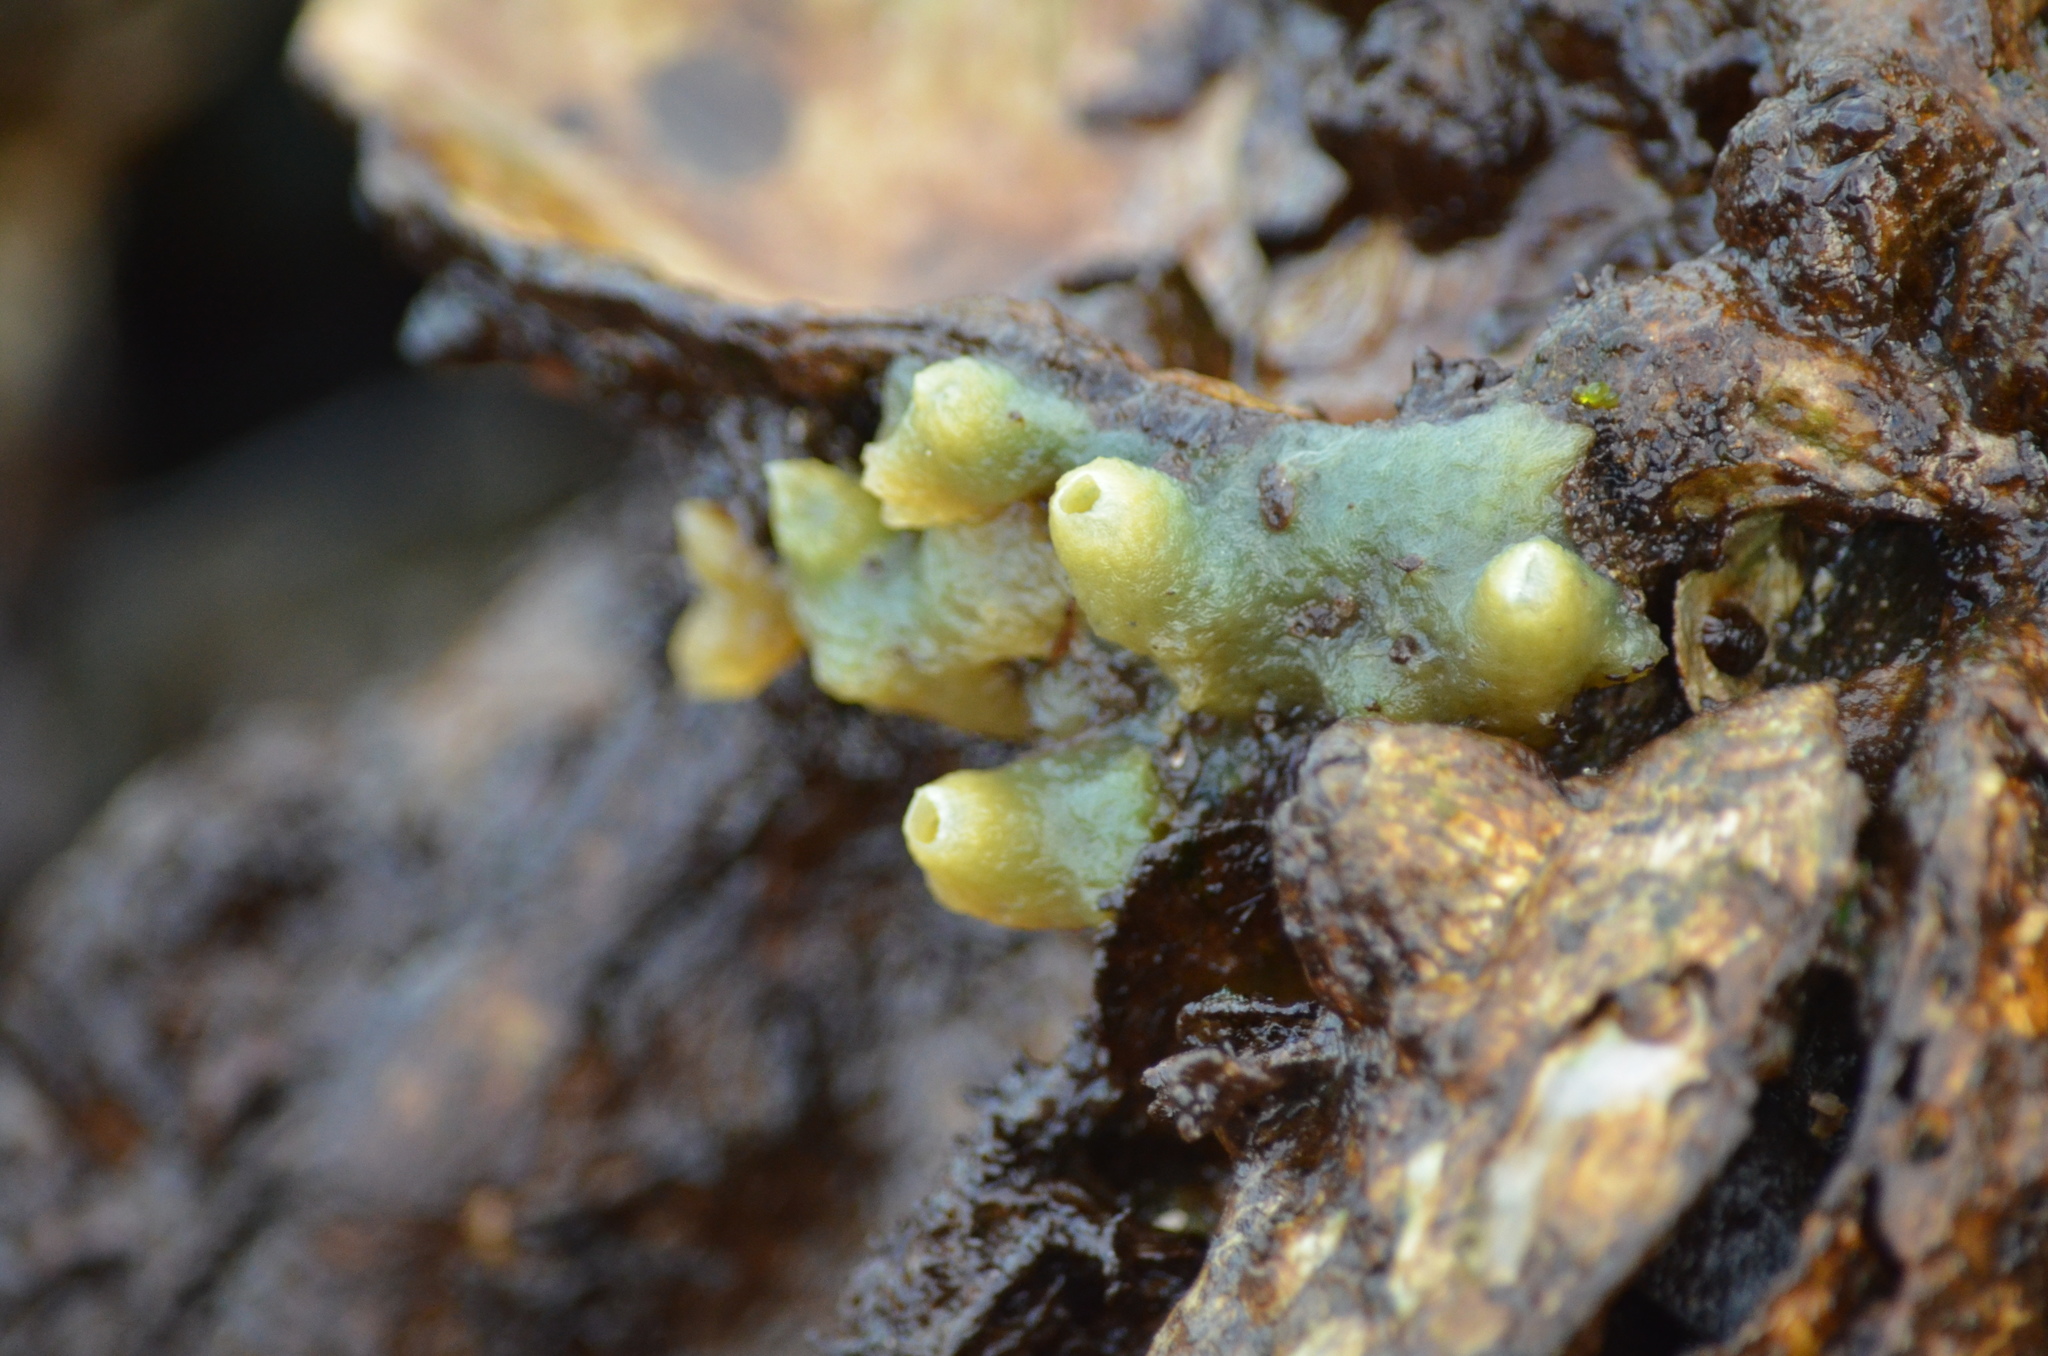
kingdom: Animalia
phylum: Porifera
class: Demospongiae
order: Suberitida
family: Halichondriidae
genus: Halichondria
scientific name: Halichondria panicea
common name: Breadcrumb sponge
